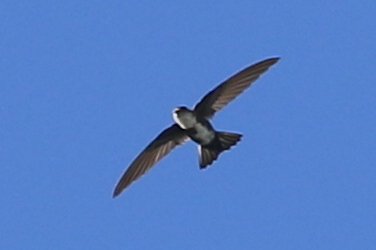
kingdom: Animalia
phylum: Chordata
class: Aves
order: Apodiformes
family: Apodidae
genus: Tachornis
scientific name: Tachornis phoenicobia
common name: Antillean palm swift
